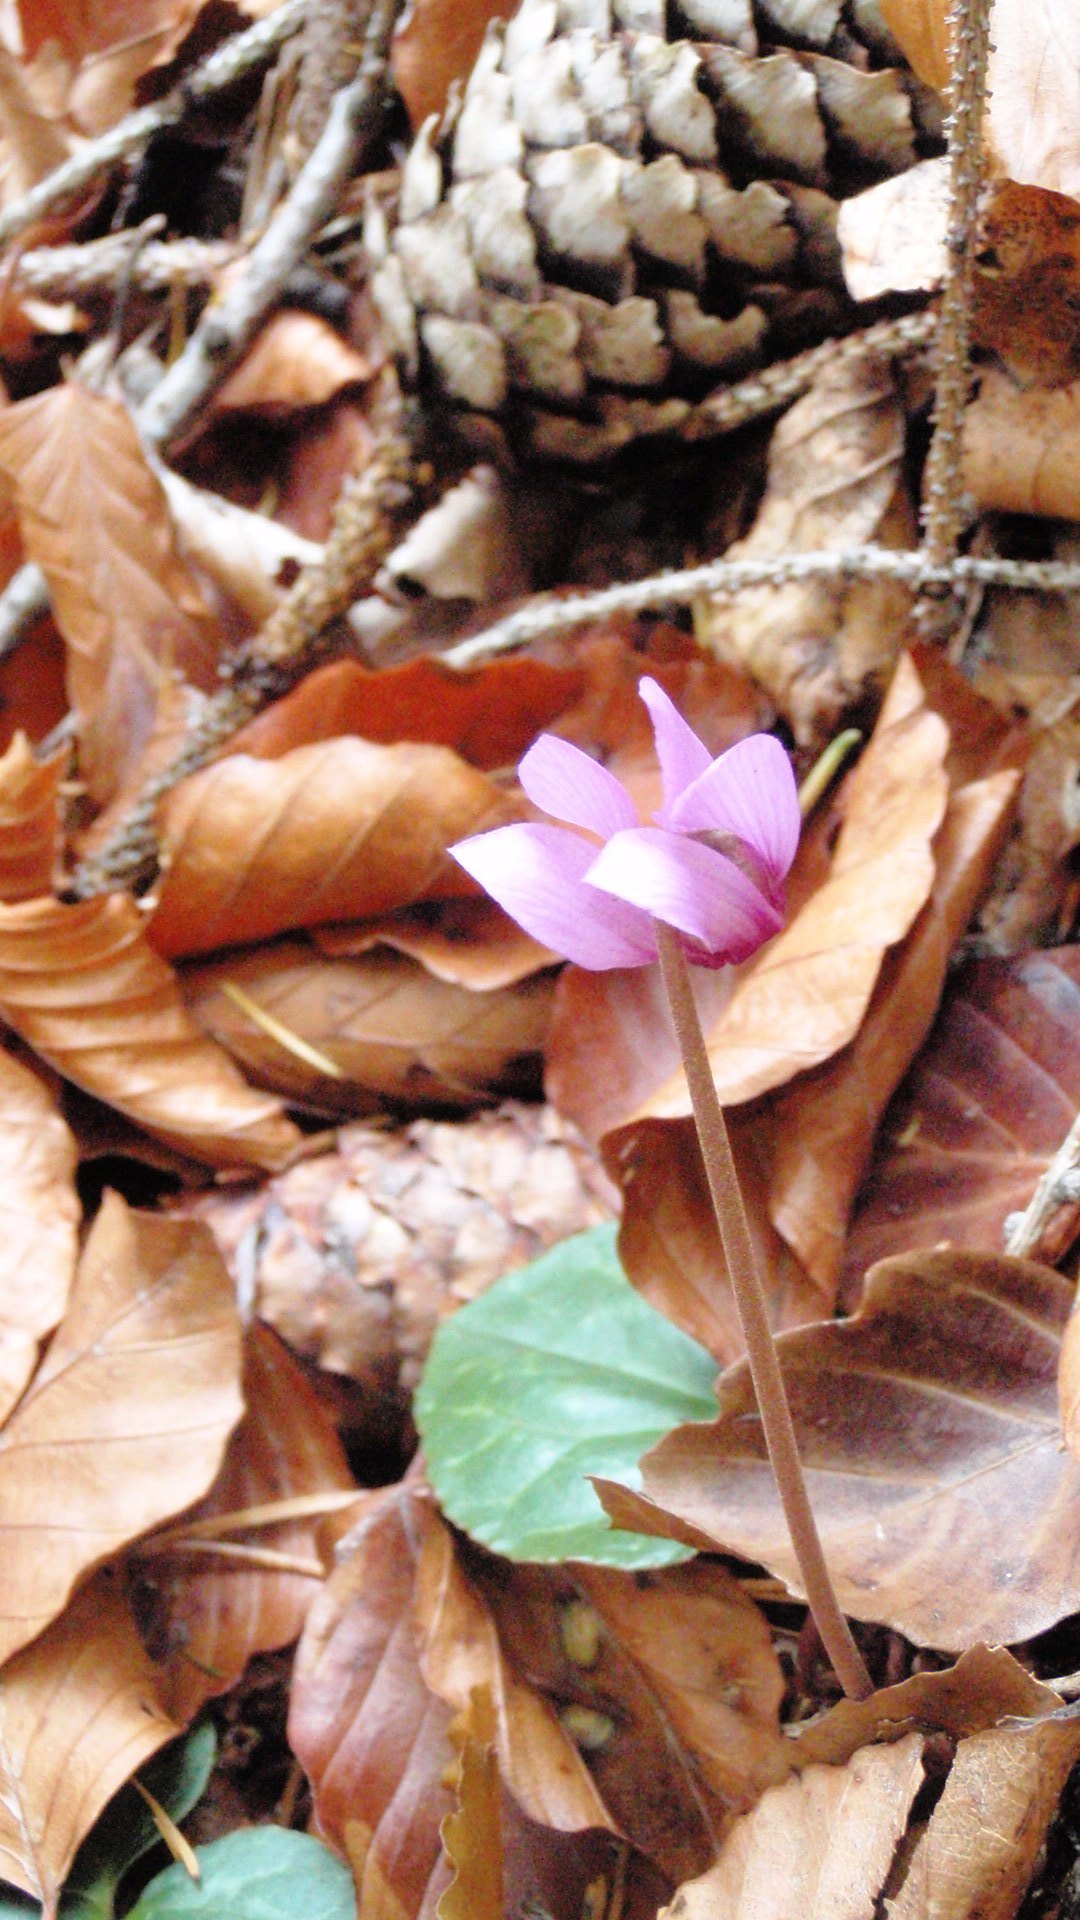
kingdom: Plantae
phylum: Tracheophyta
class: Magnoliopsida
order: Ericales
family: Primulaceae
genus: Cyclamen
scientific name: Cyclamen purpurascens
